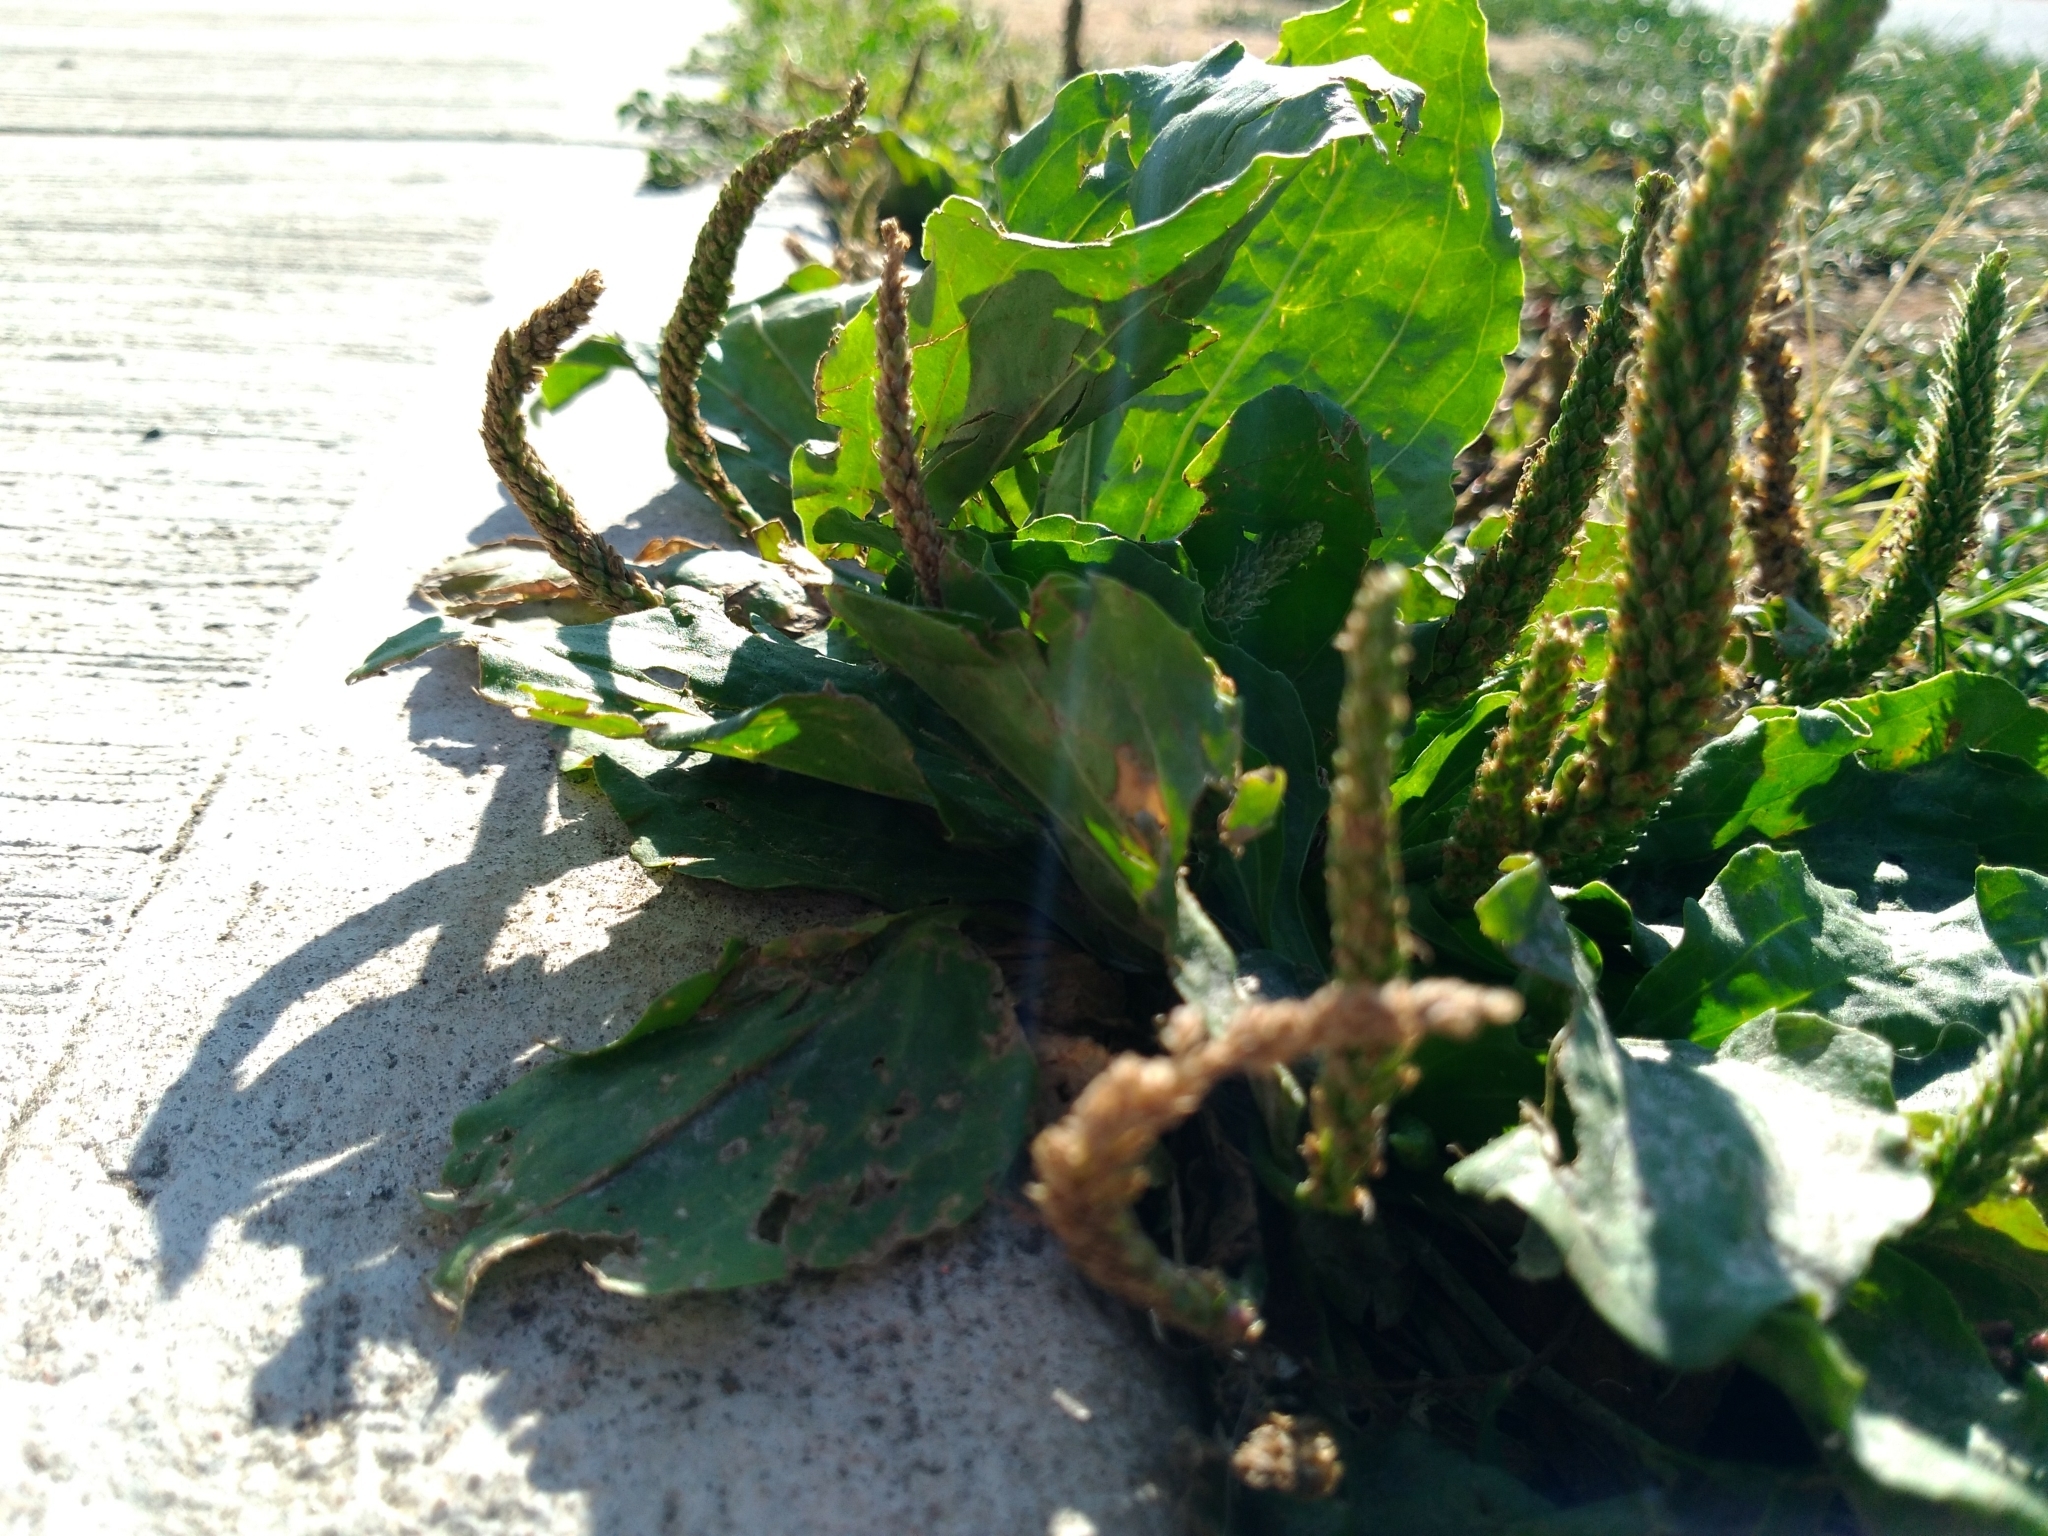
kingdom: Plantae
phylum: Tracheophyta
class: Magnoliopsida
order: Lamiales
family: Plantaginaceae
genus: Plantago
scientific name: Plantago major
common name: Common plantain
